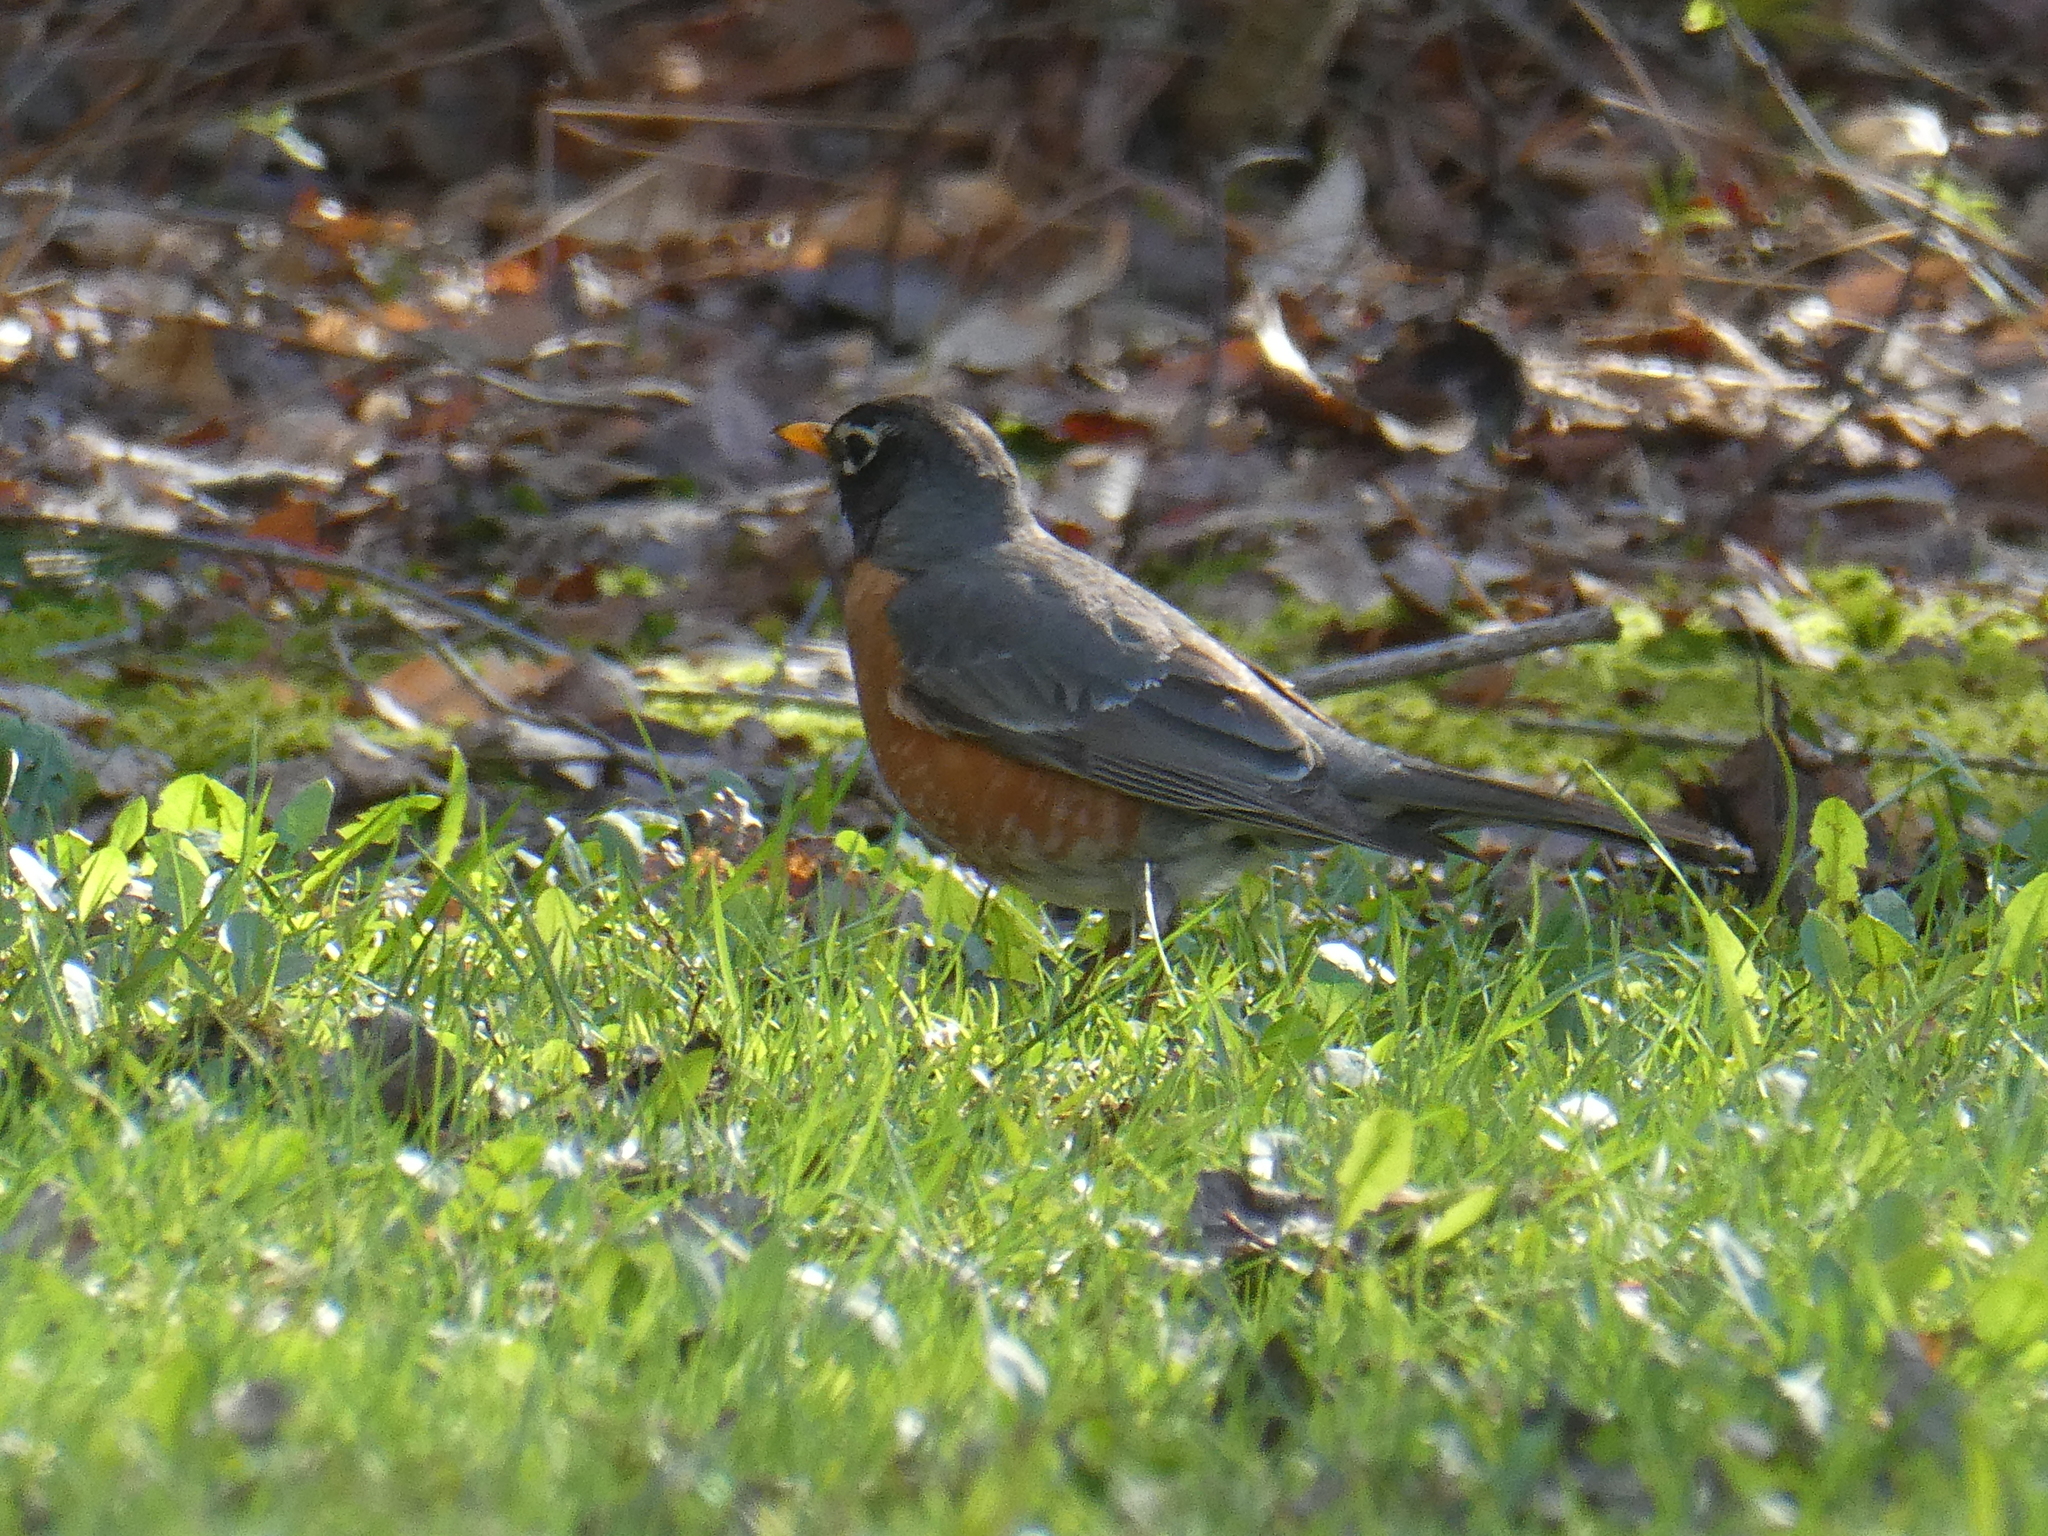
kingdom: Animalia
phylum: Chordata
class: Aves
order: Passeriformes
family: Turdidae
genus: Turdus
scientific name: Turdus migratorius
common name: American robin
